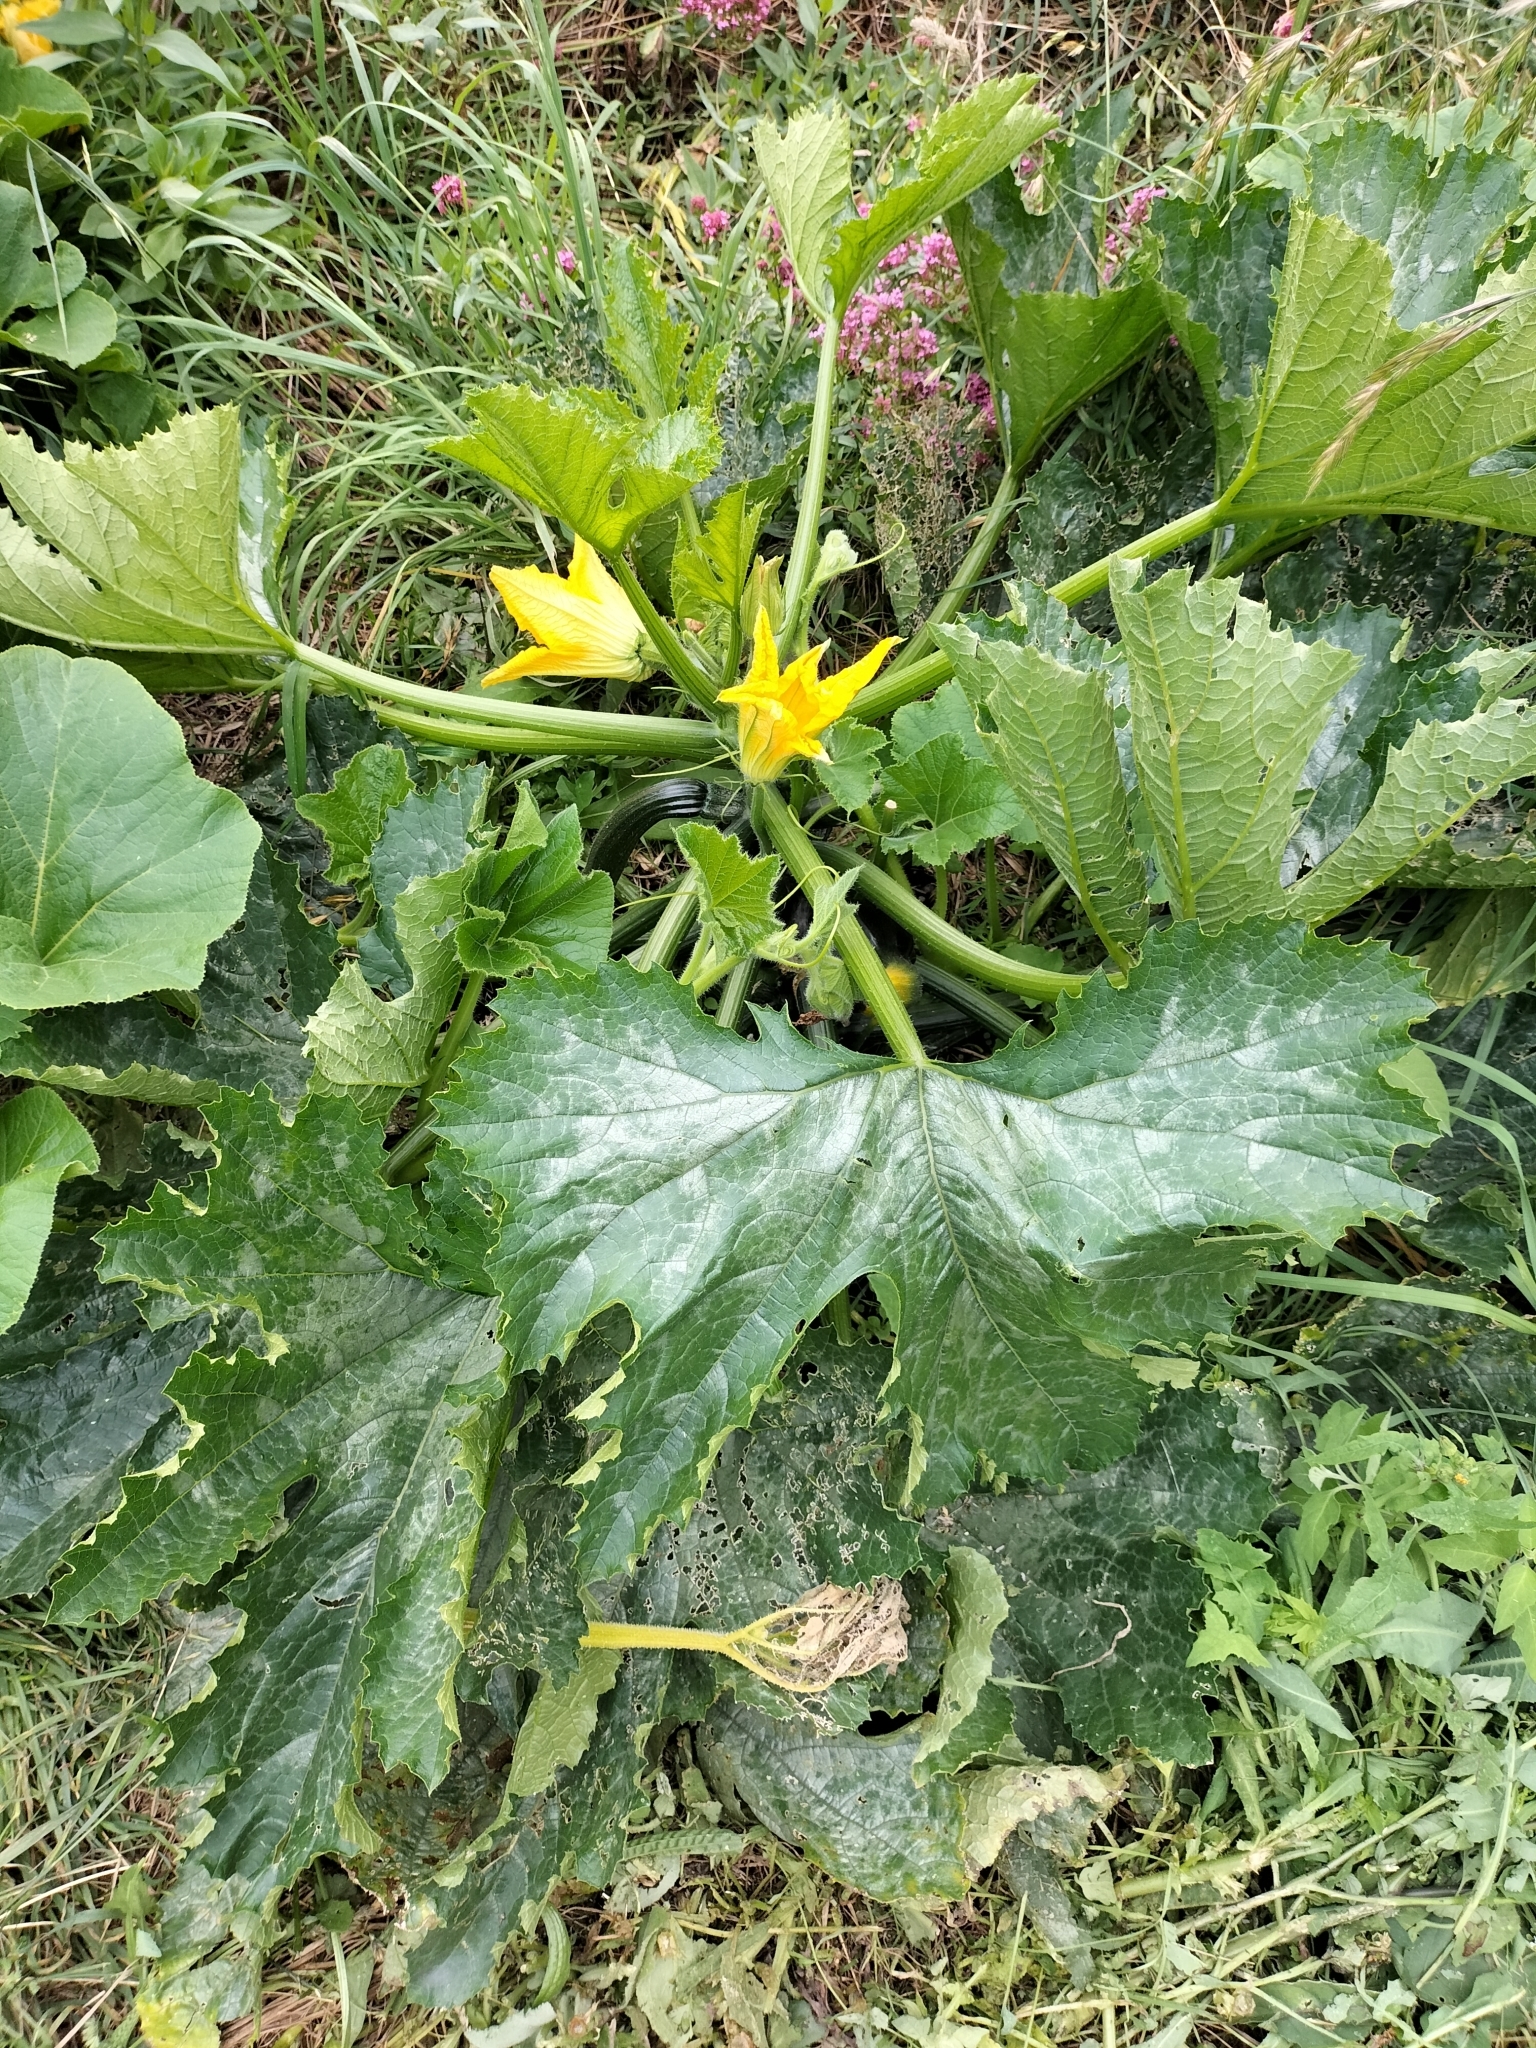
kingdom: Plantae
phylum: Tracheophyta
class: Magnoliopsida
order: Cucurbitales
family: Cucurbitaceae
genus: Cucurbita
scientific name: Cucurbita pepo
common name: Marrow
